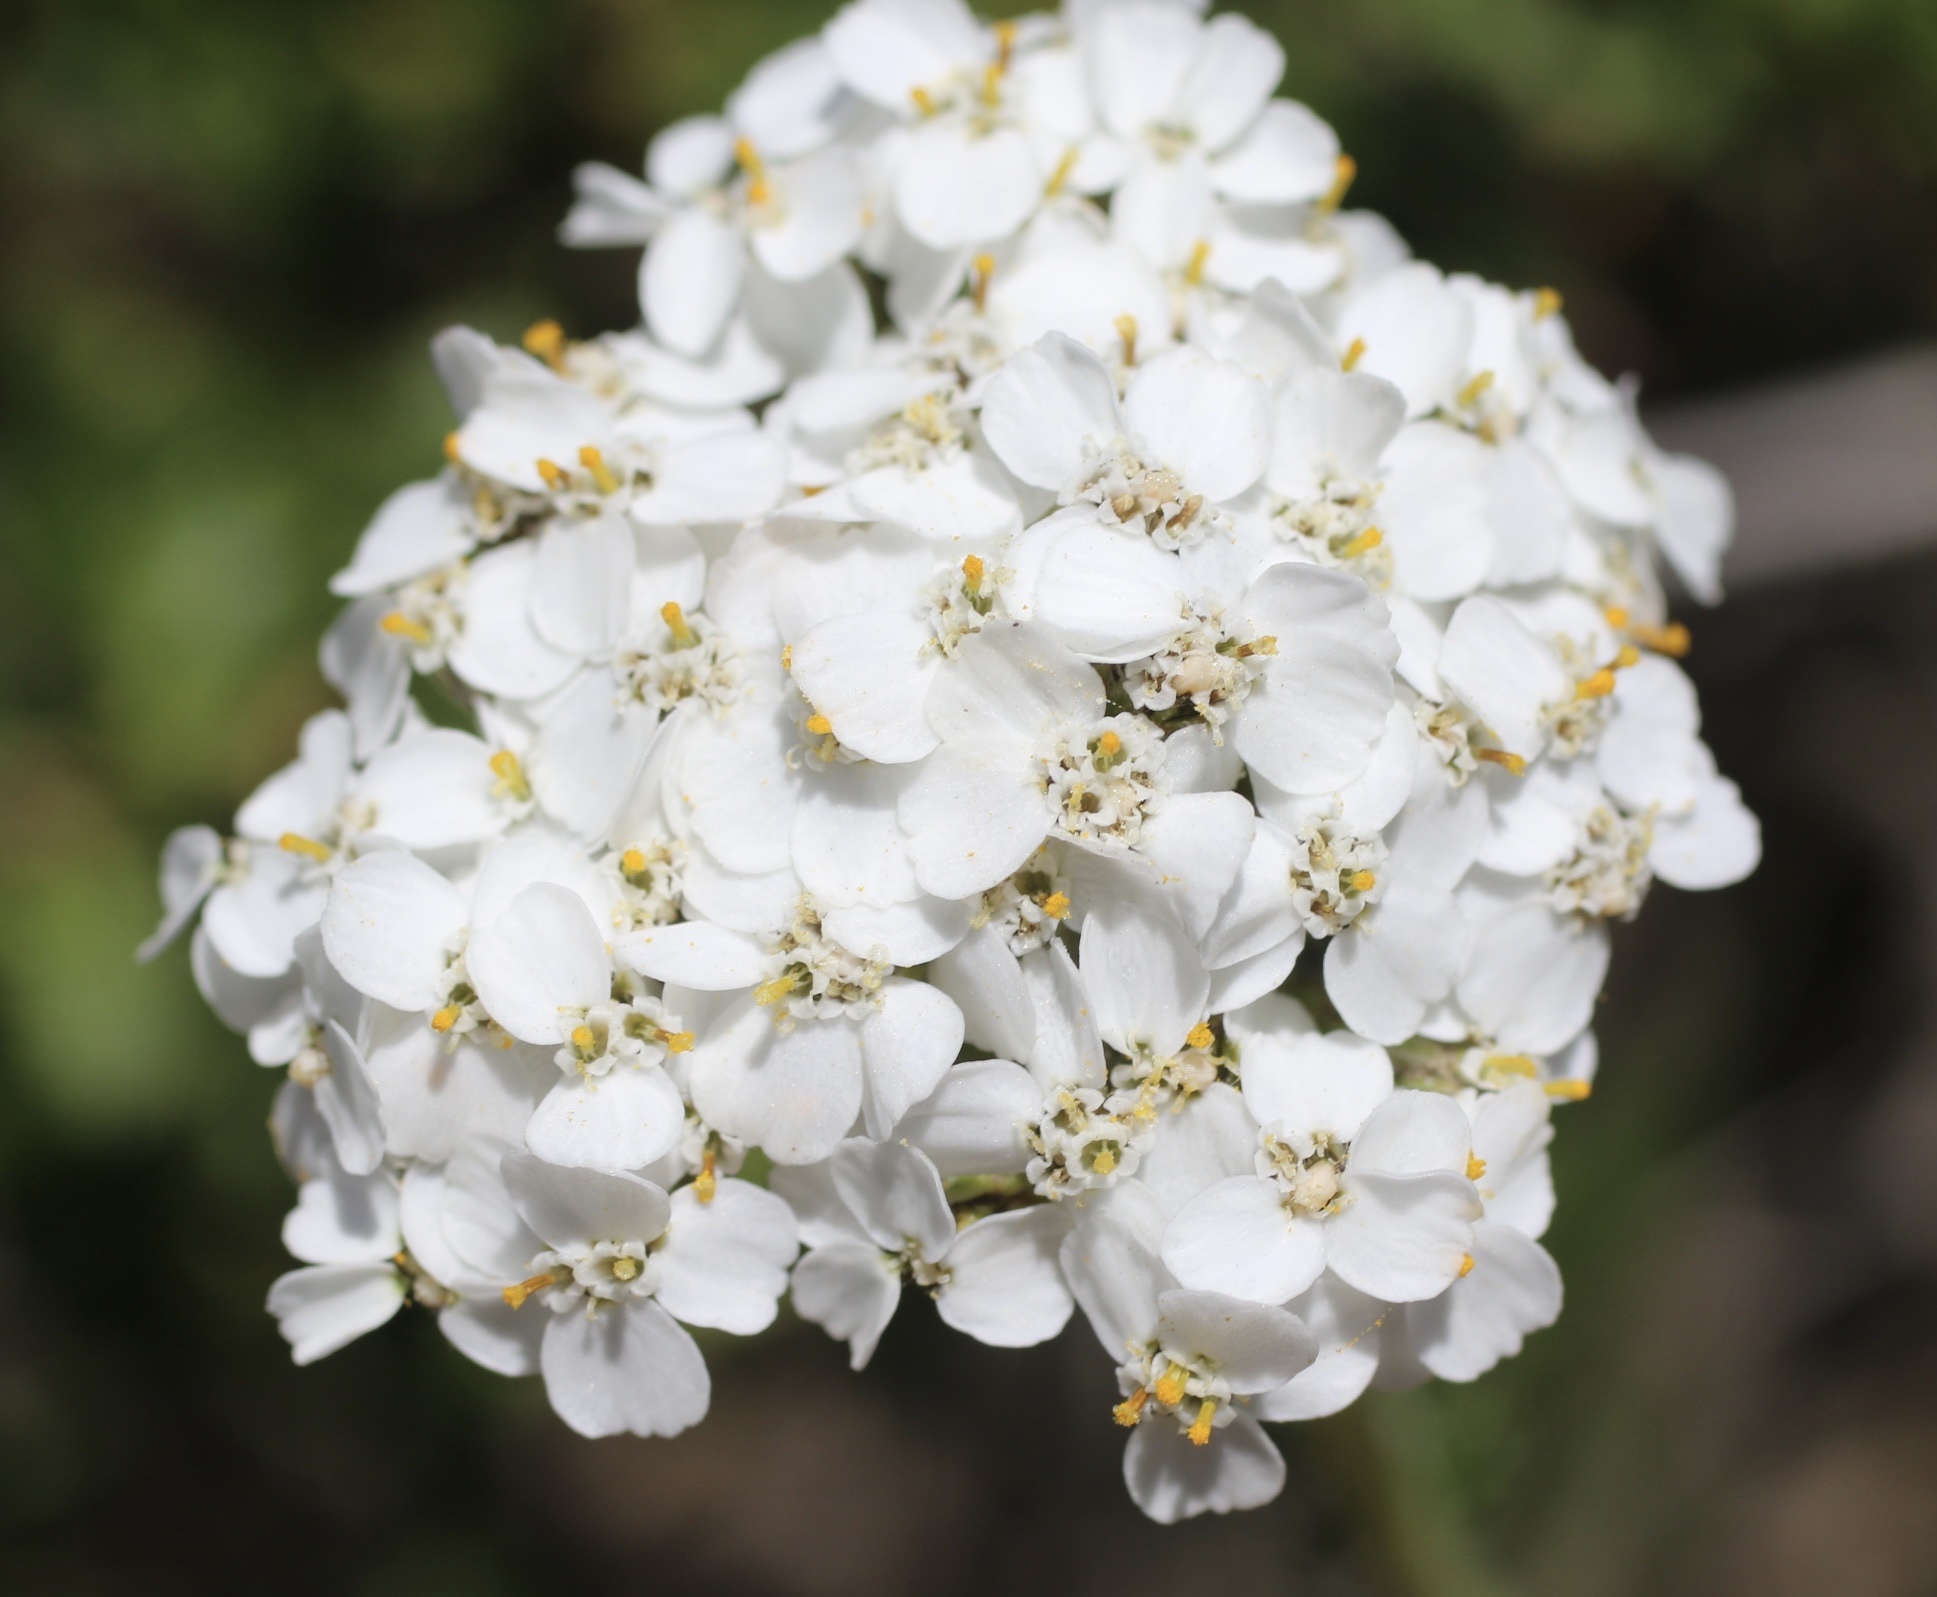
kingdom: Plantae
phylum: Tracheophyta
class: Magnoliopsida
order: Asterales
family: Asteraceae
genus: Achillea
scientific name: Achillea millefolium
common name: Yarrow
